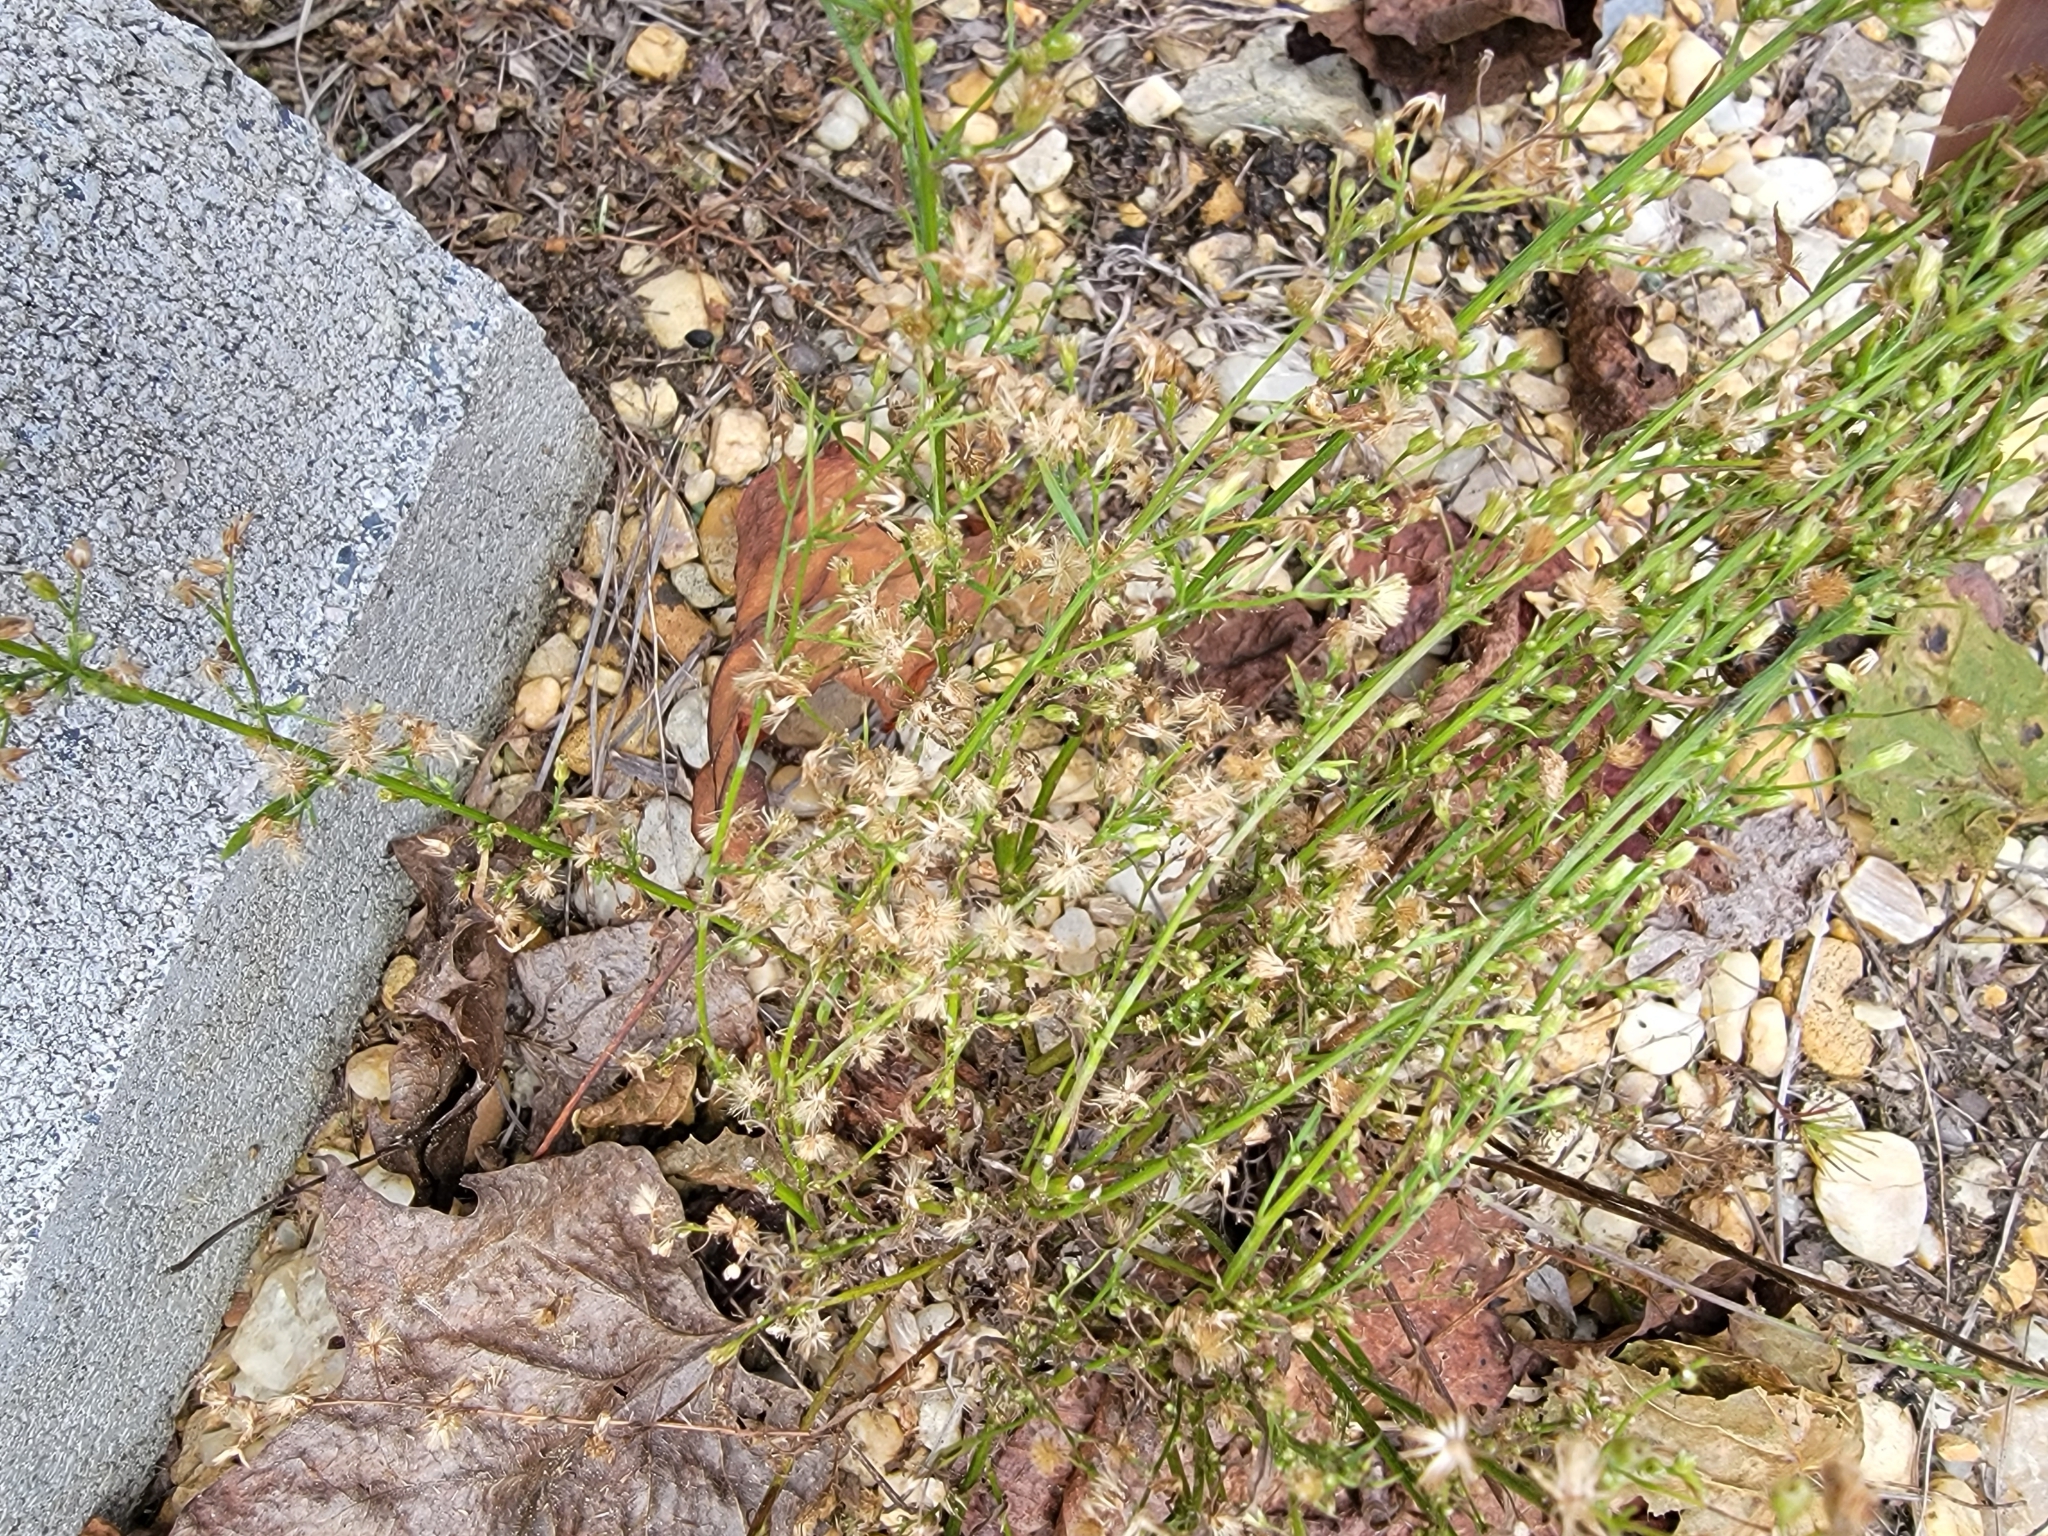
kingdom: Plantae
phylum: Tracheophyta
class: Magnoliopsida
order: Asterales
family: Asteraceae
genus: Erigeron
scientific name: Erigeron canadensis
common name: Canadian fleabane
